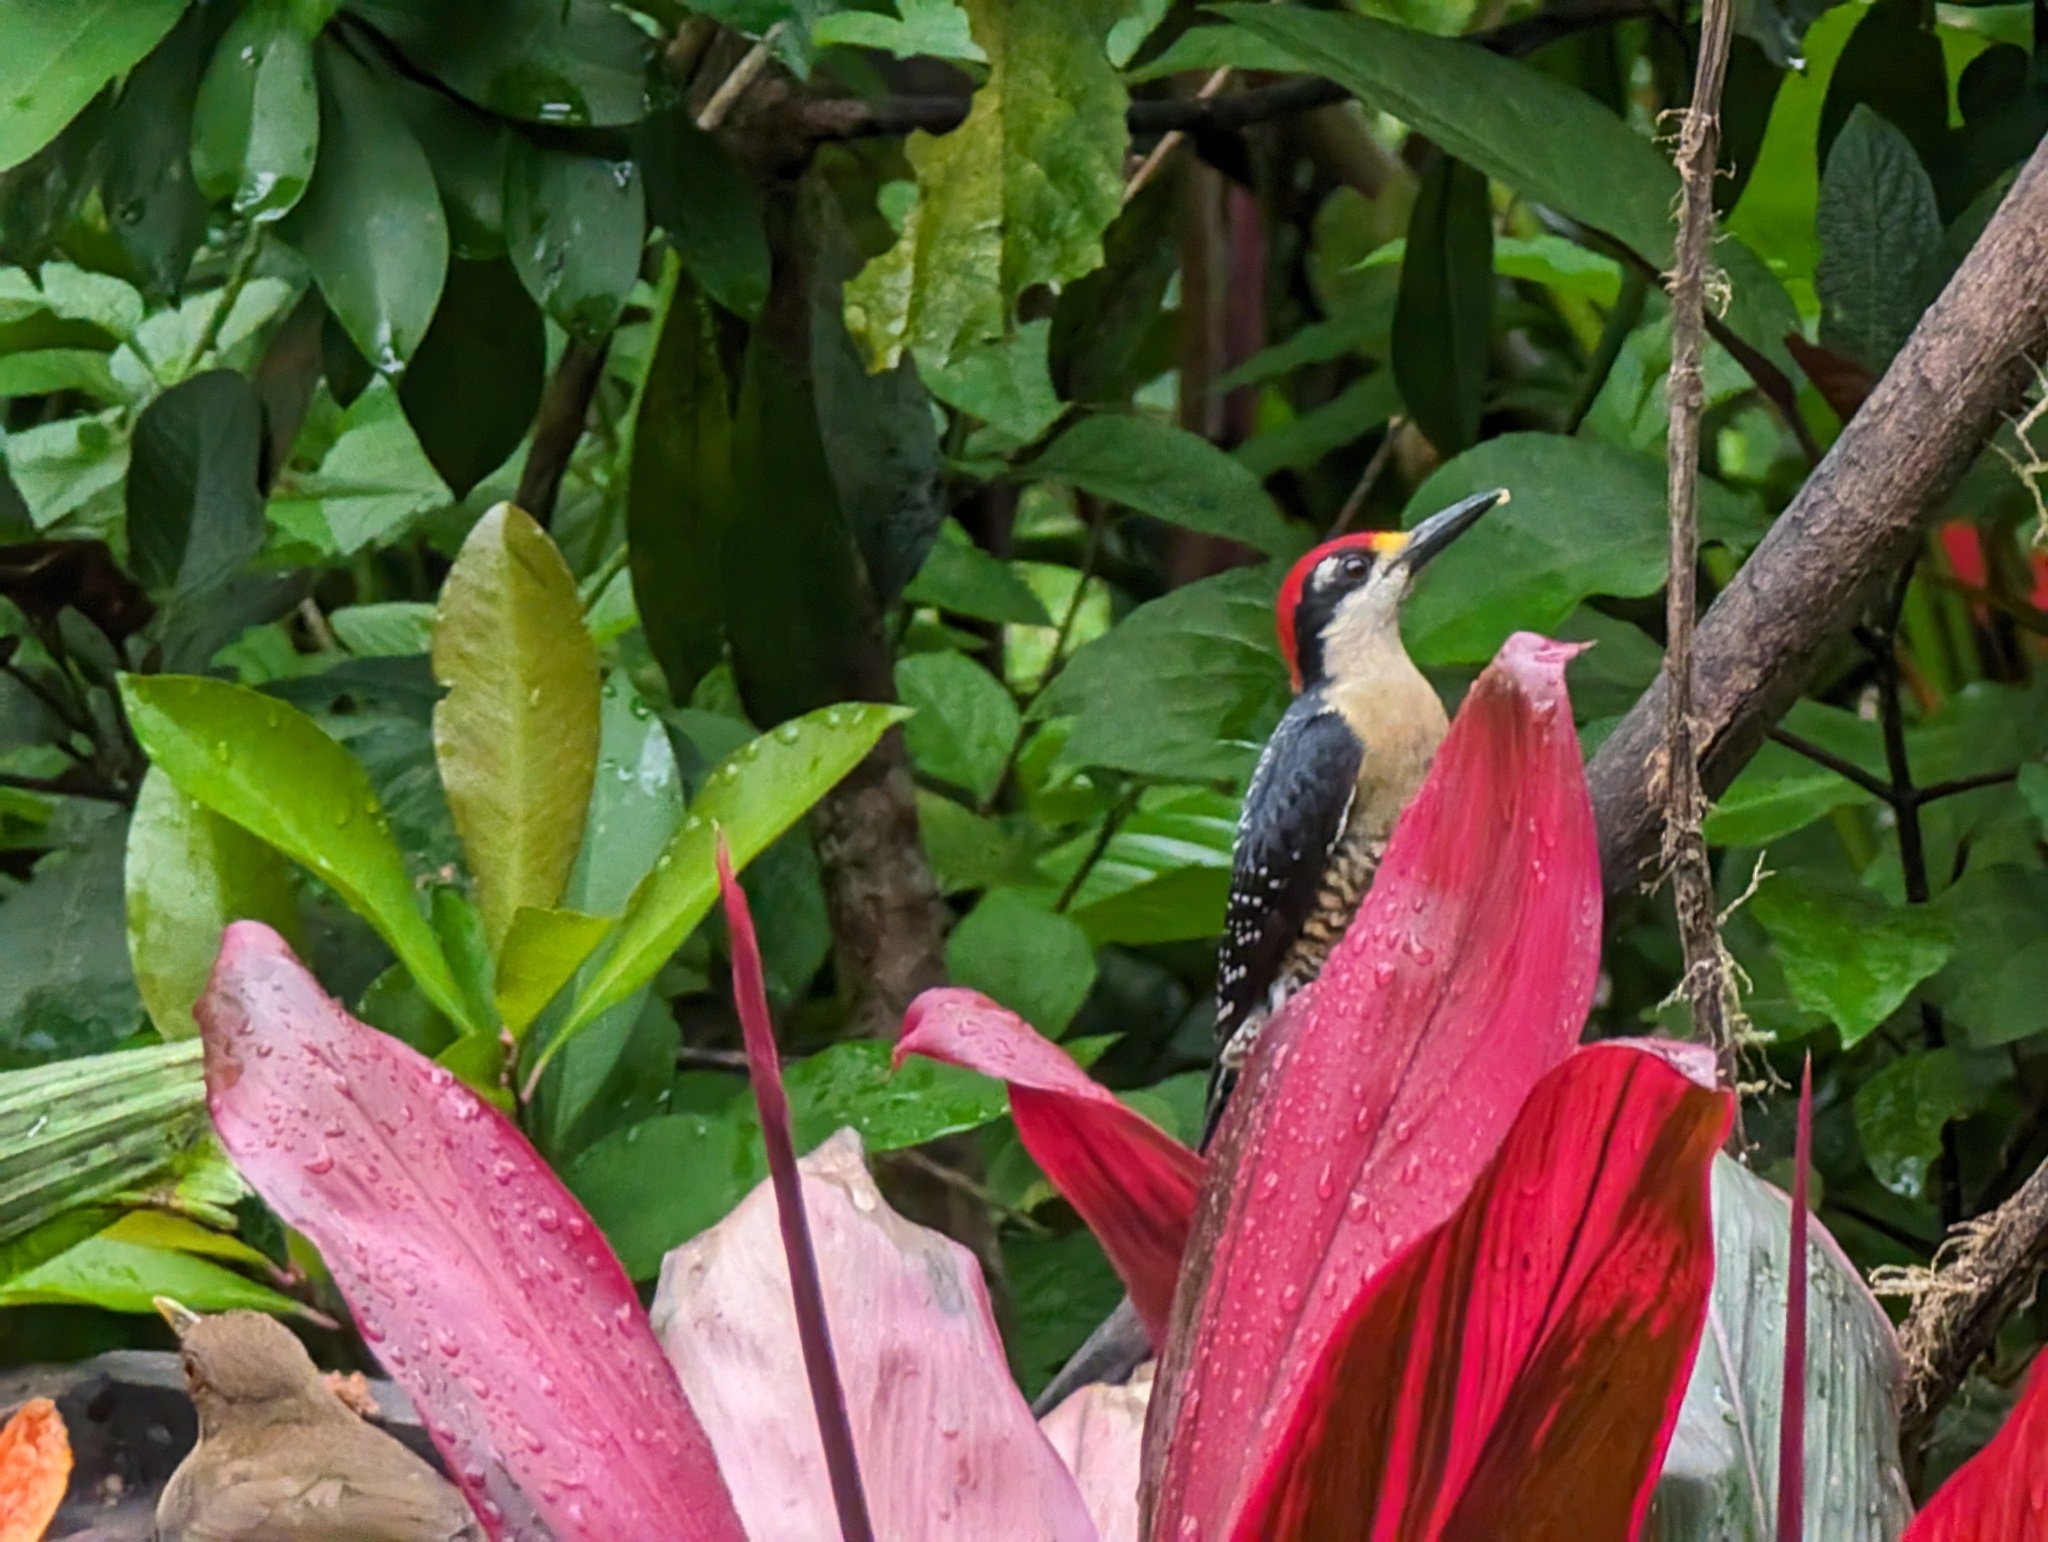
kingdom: Animalia
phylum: Chordata
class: Aves
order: Piciformes
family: Picidae
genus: Melanerpes
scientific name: Melanerpes pucherani
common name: Black-cheeked woodpecker
